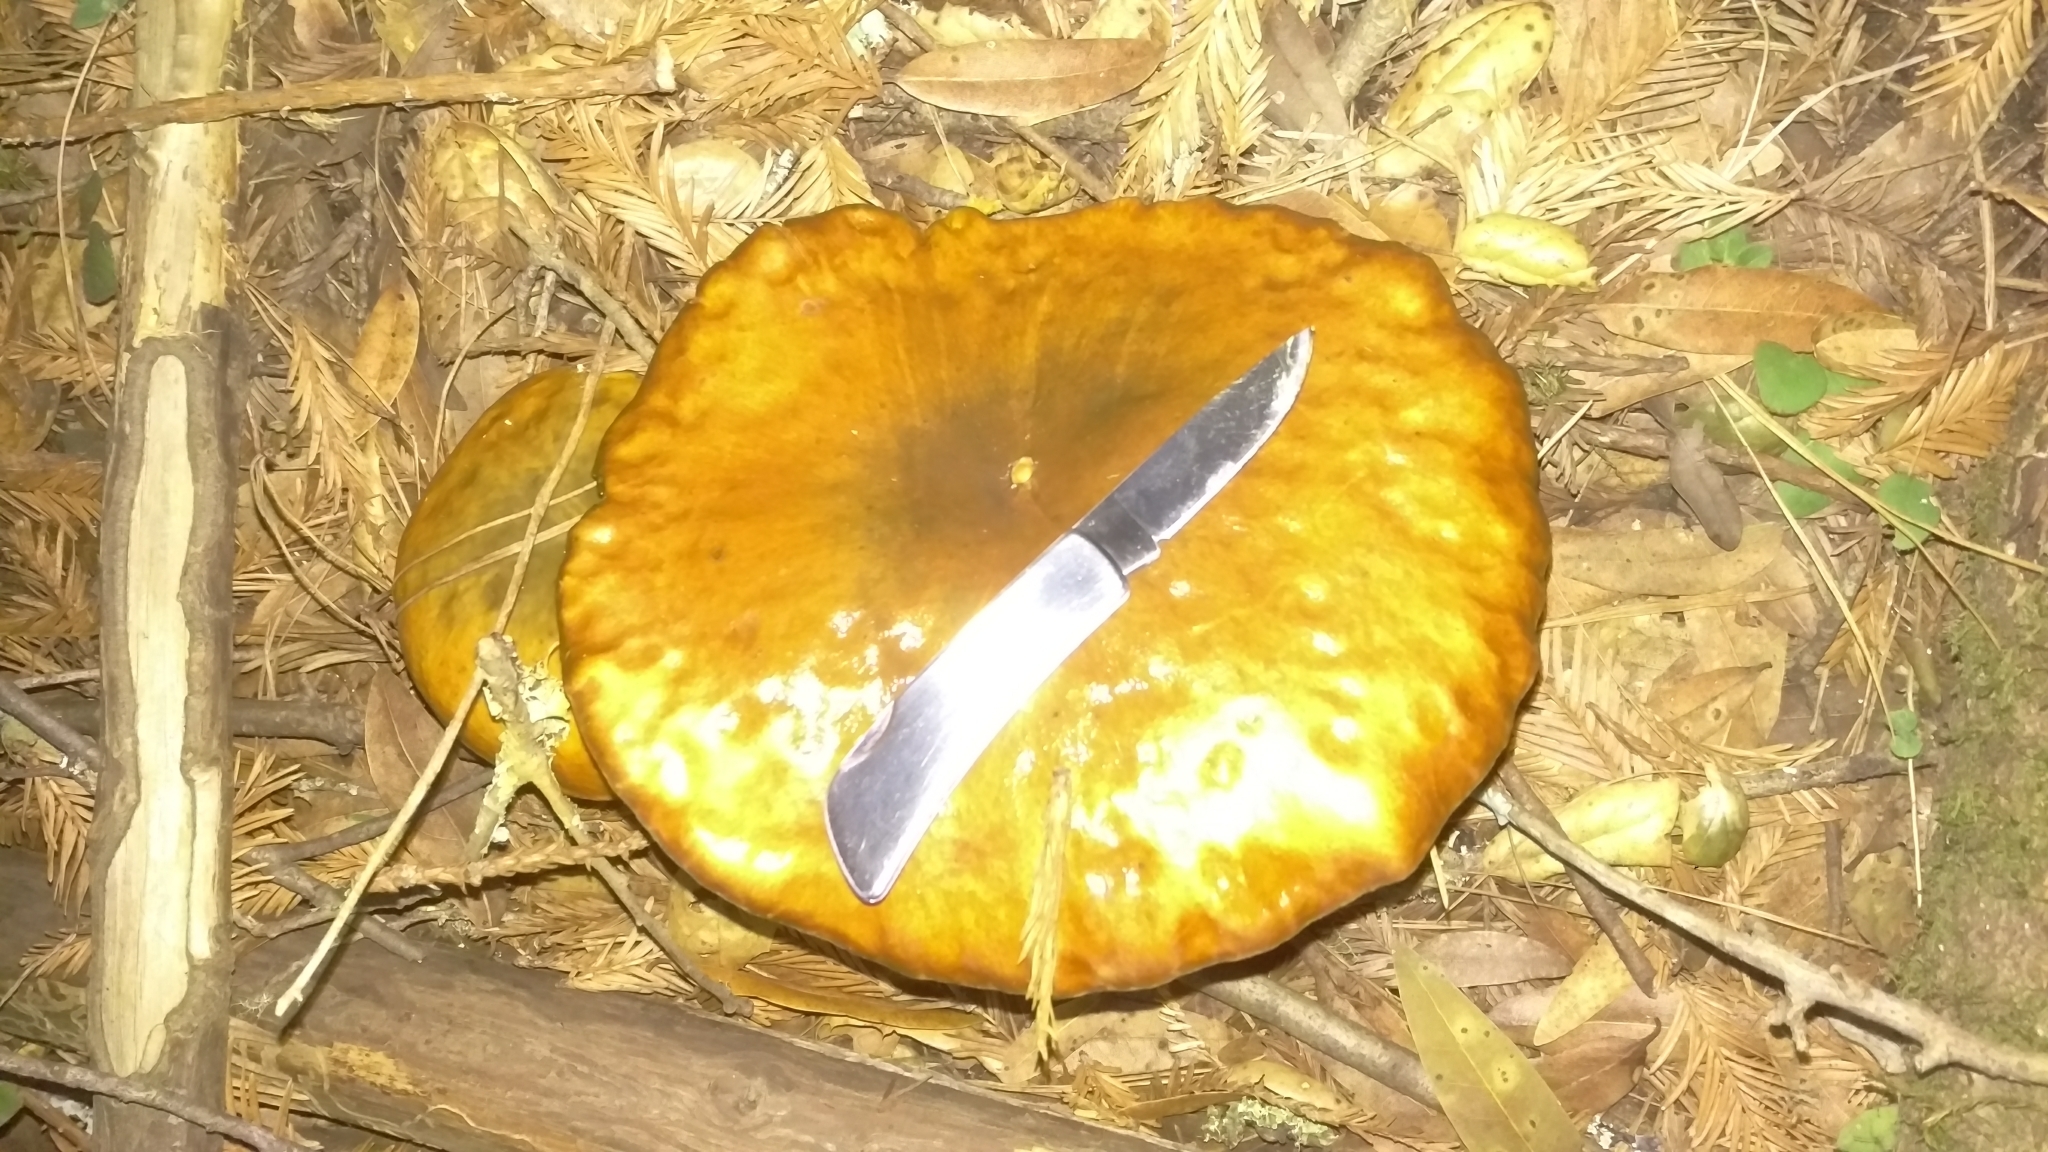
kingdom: Fungi
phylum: Basidiomycota
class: Agaricomycetes
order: Boletales
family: Suillaceae
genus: Suillus
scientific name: Suillus pungens
